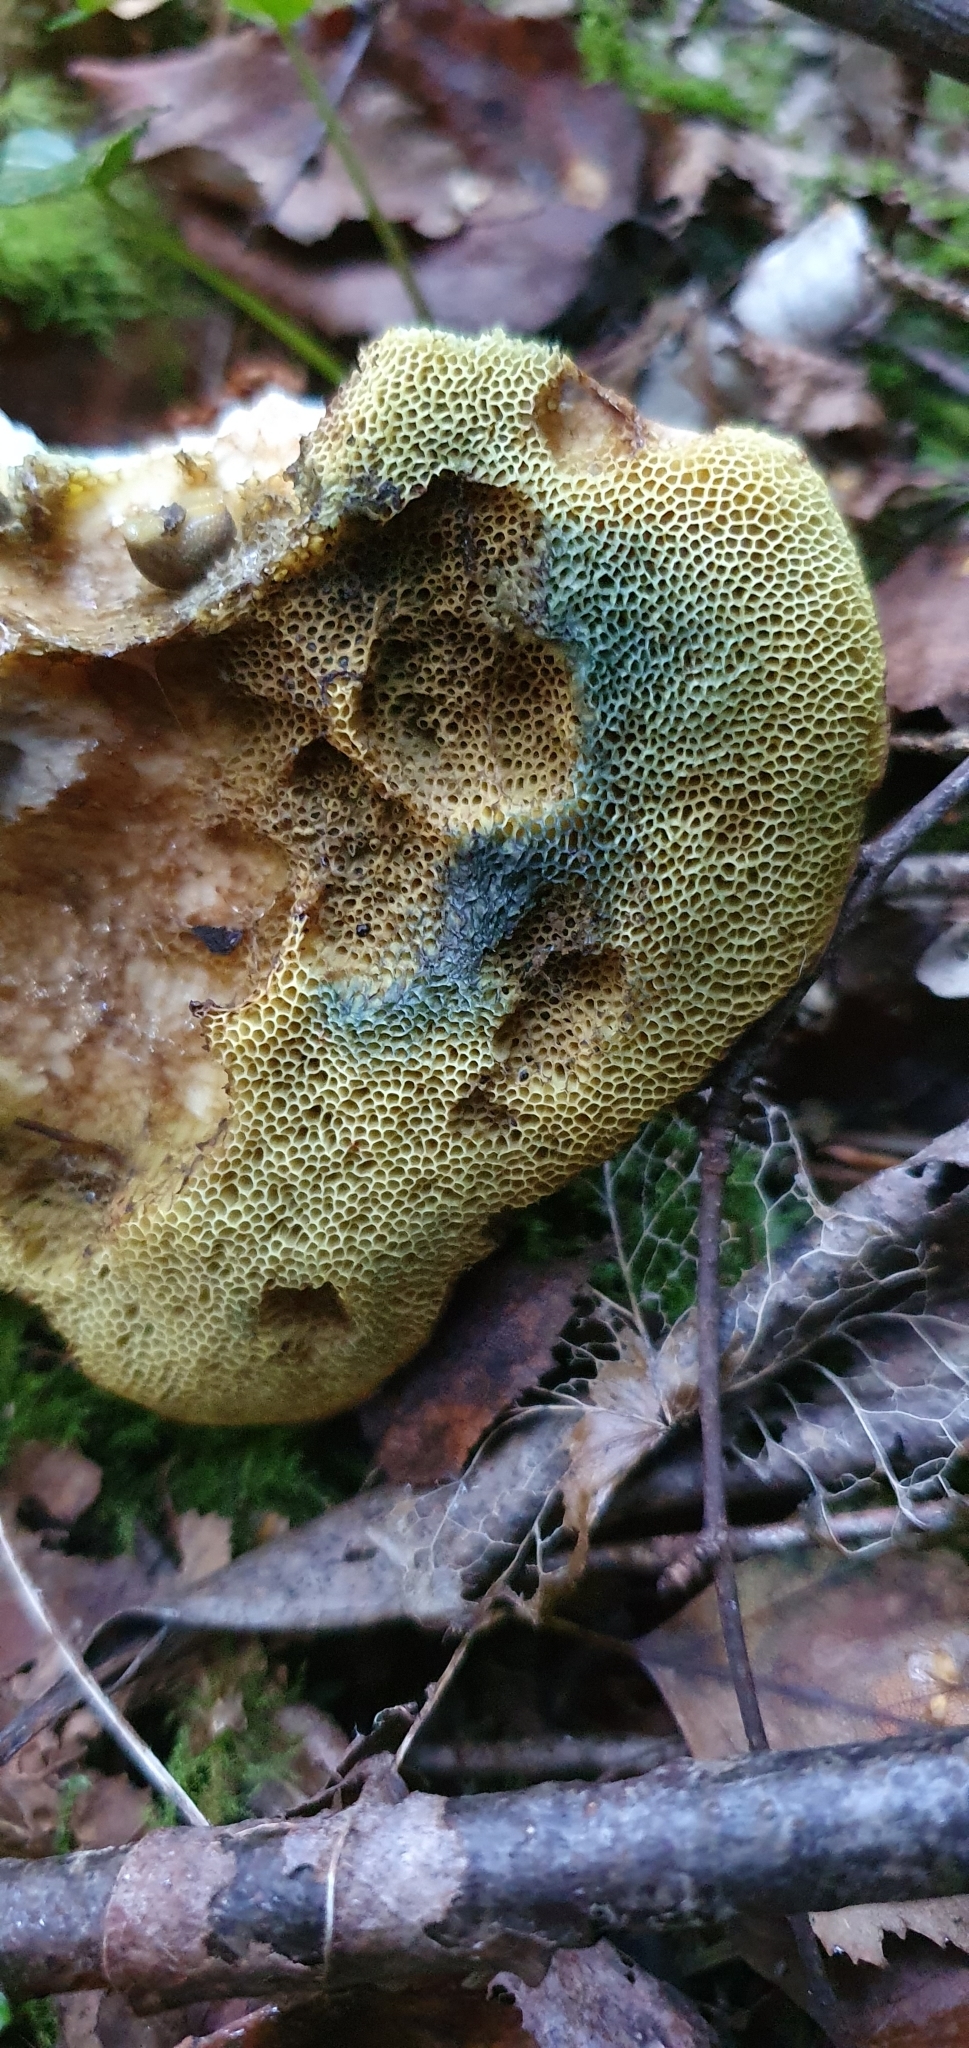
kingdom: Fungi
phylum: Basidiomycota
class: Agaricomycetes
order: Boletales
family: Boletaceae
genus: Imleria
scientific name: Imleria badia
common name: Bay bolete
